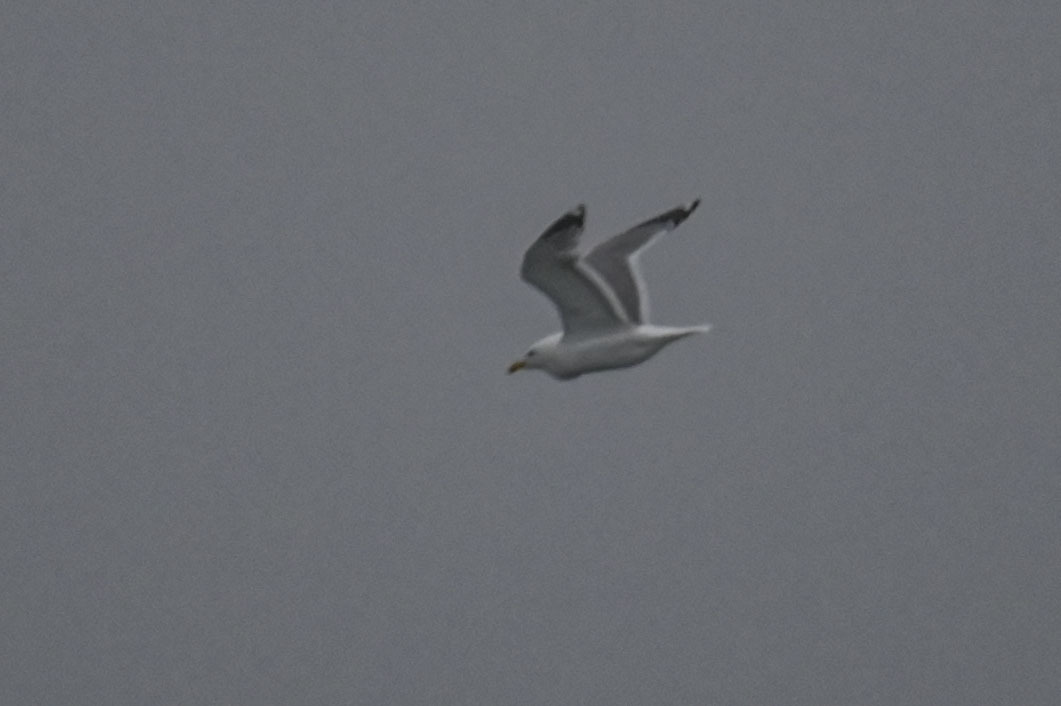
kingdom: Animalia
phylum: Chordata
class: Aves
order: Charadriiformes
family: Laridae
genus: Larus
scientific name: Larus vegae
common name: Vega gull
